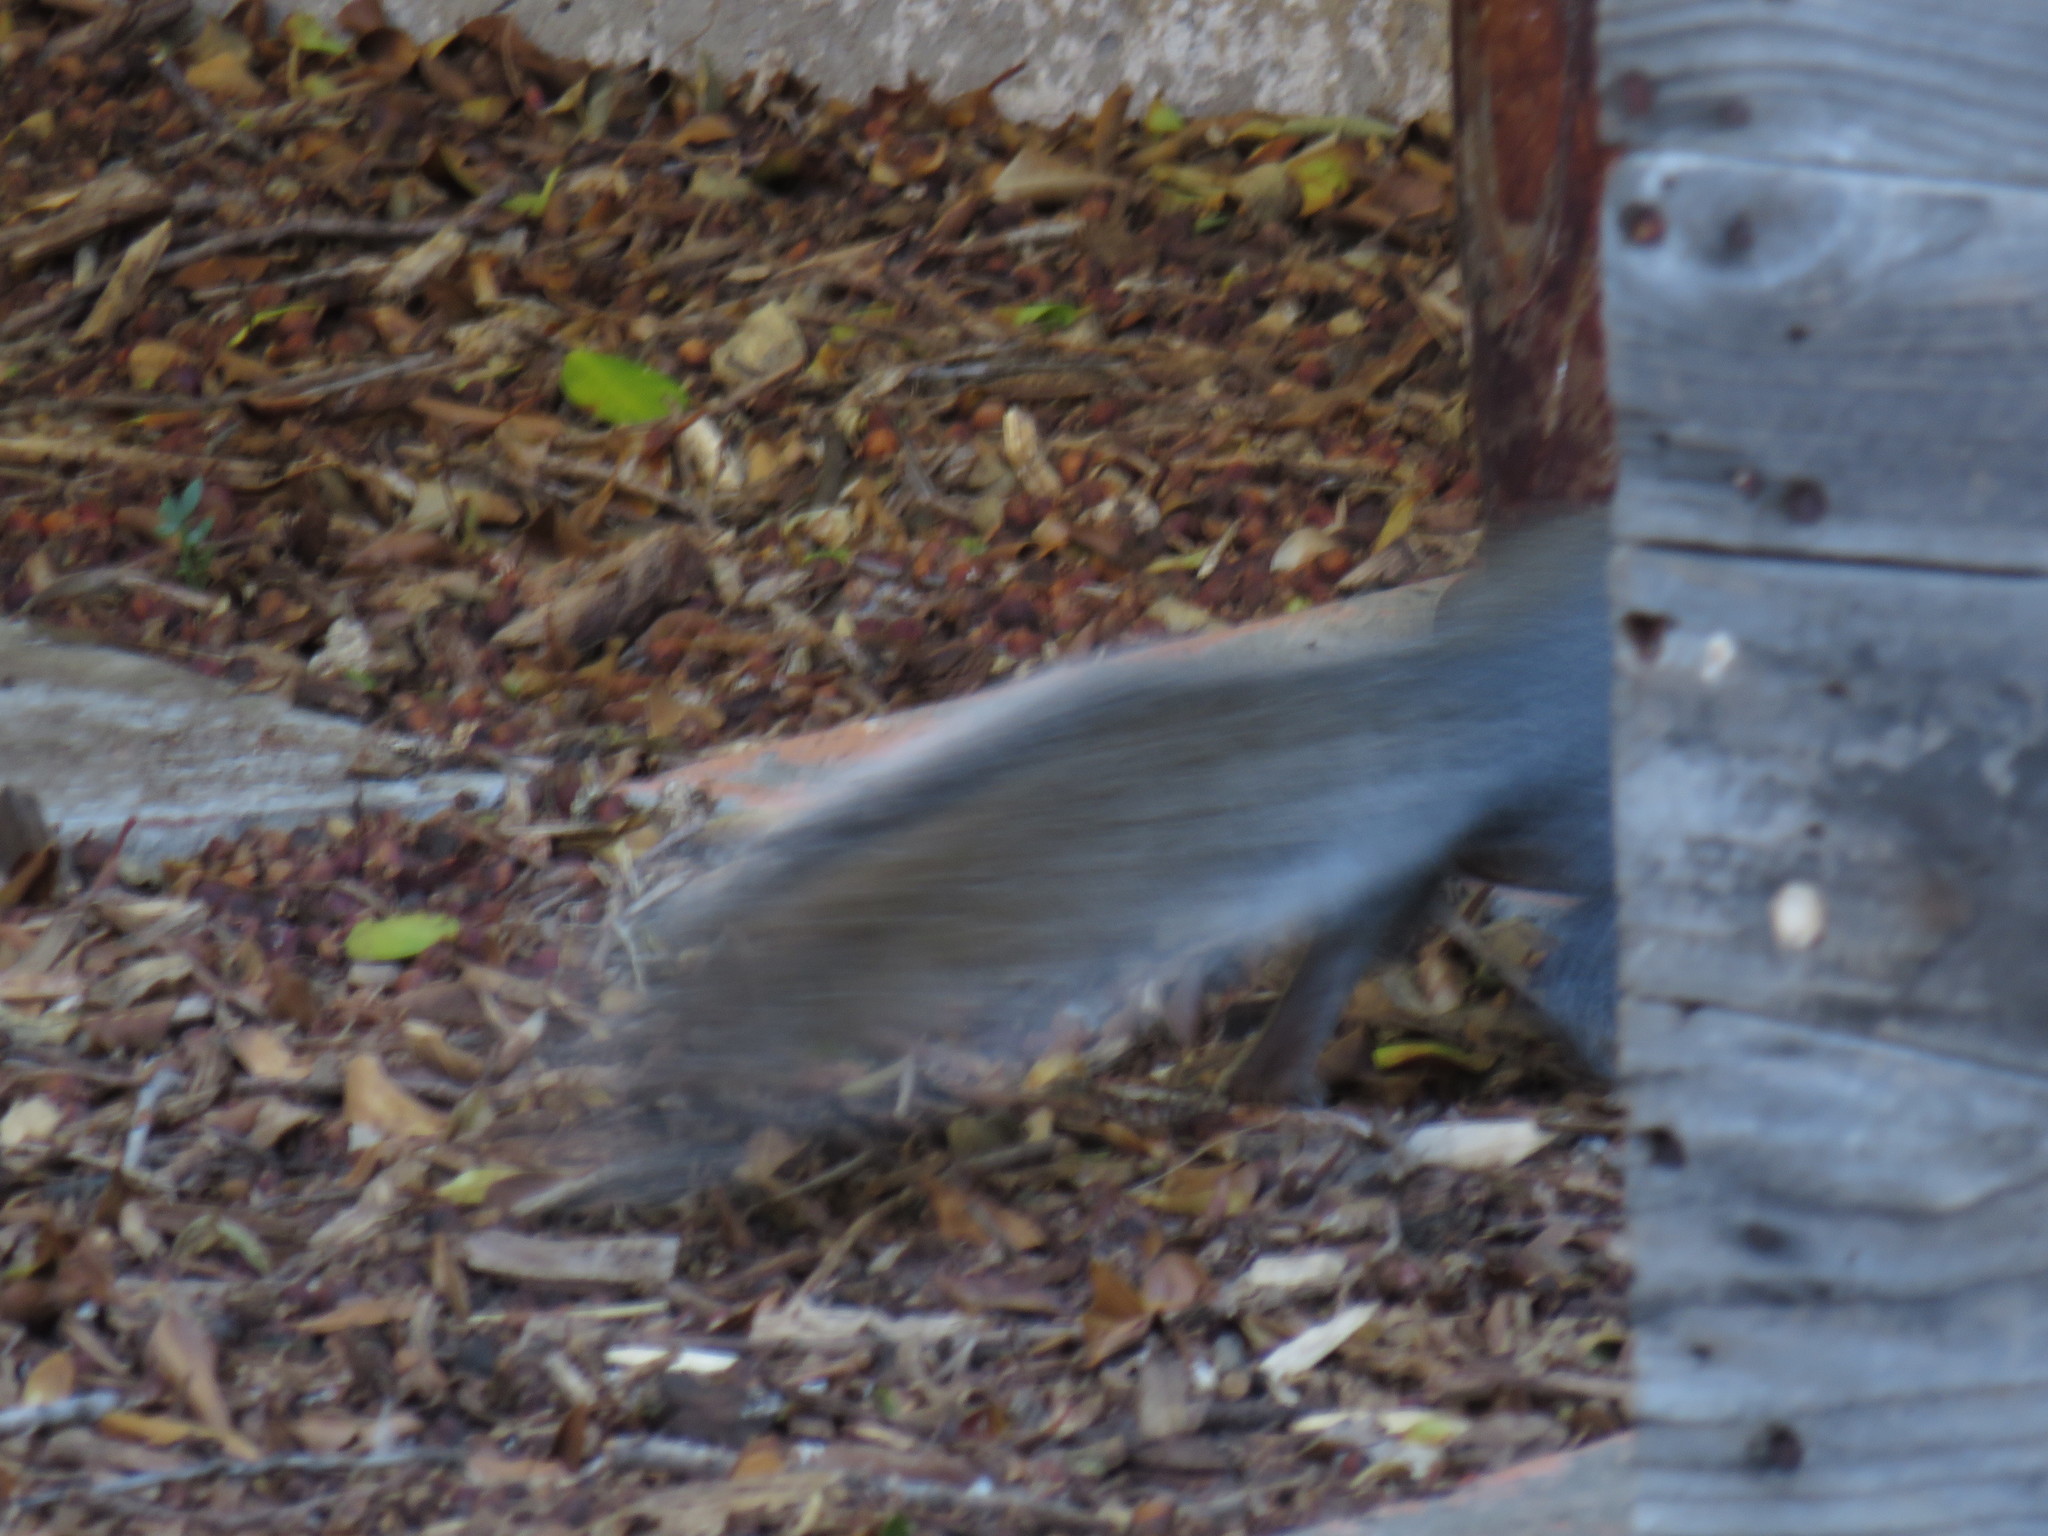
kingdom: Animalia
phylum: Chordata
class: Mammalia
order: Rodentia
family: Sciuridae
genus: Sciurus
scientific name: Sciurus carolinensis
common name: Eastern gray squirrel
